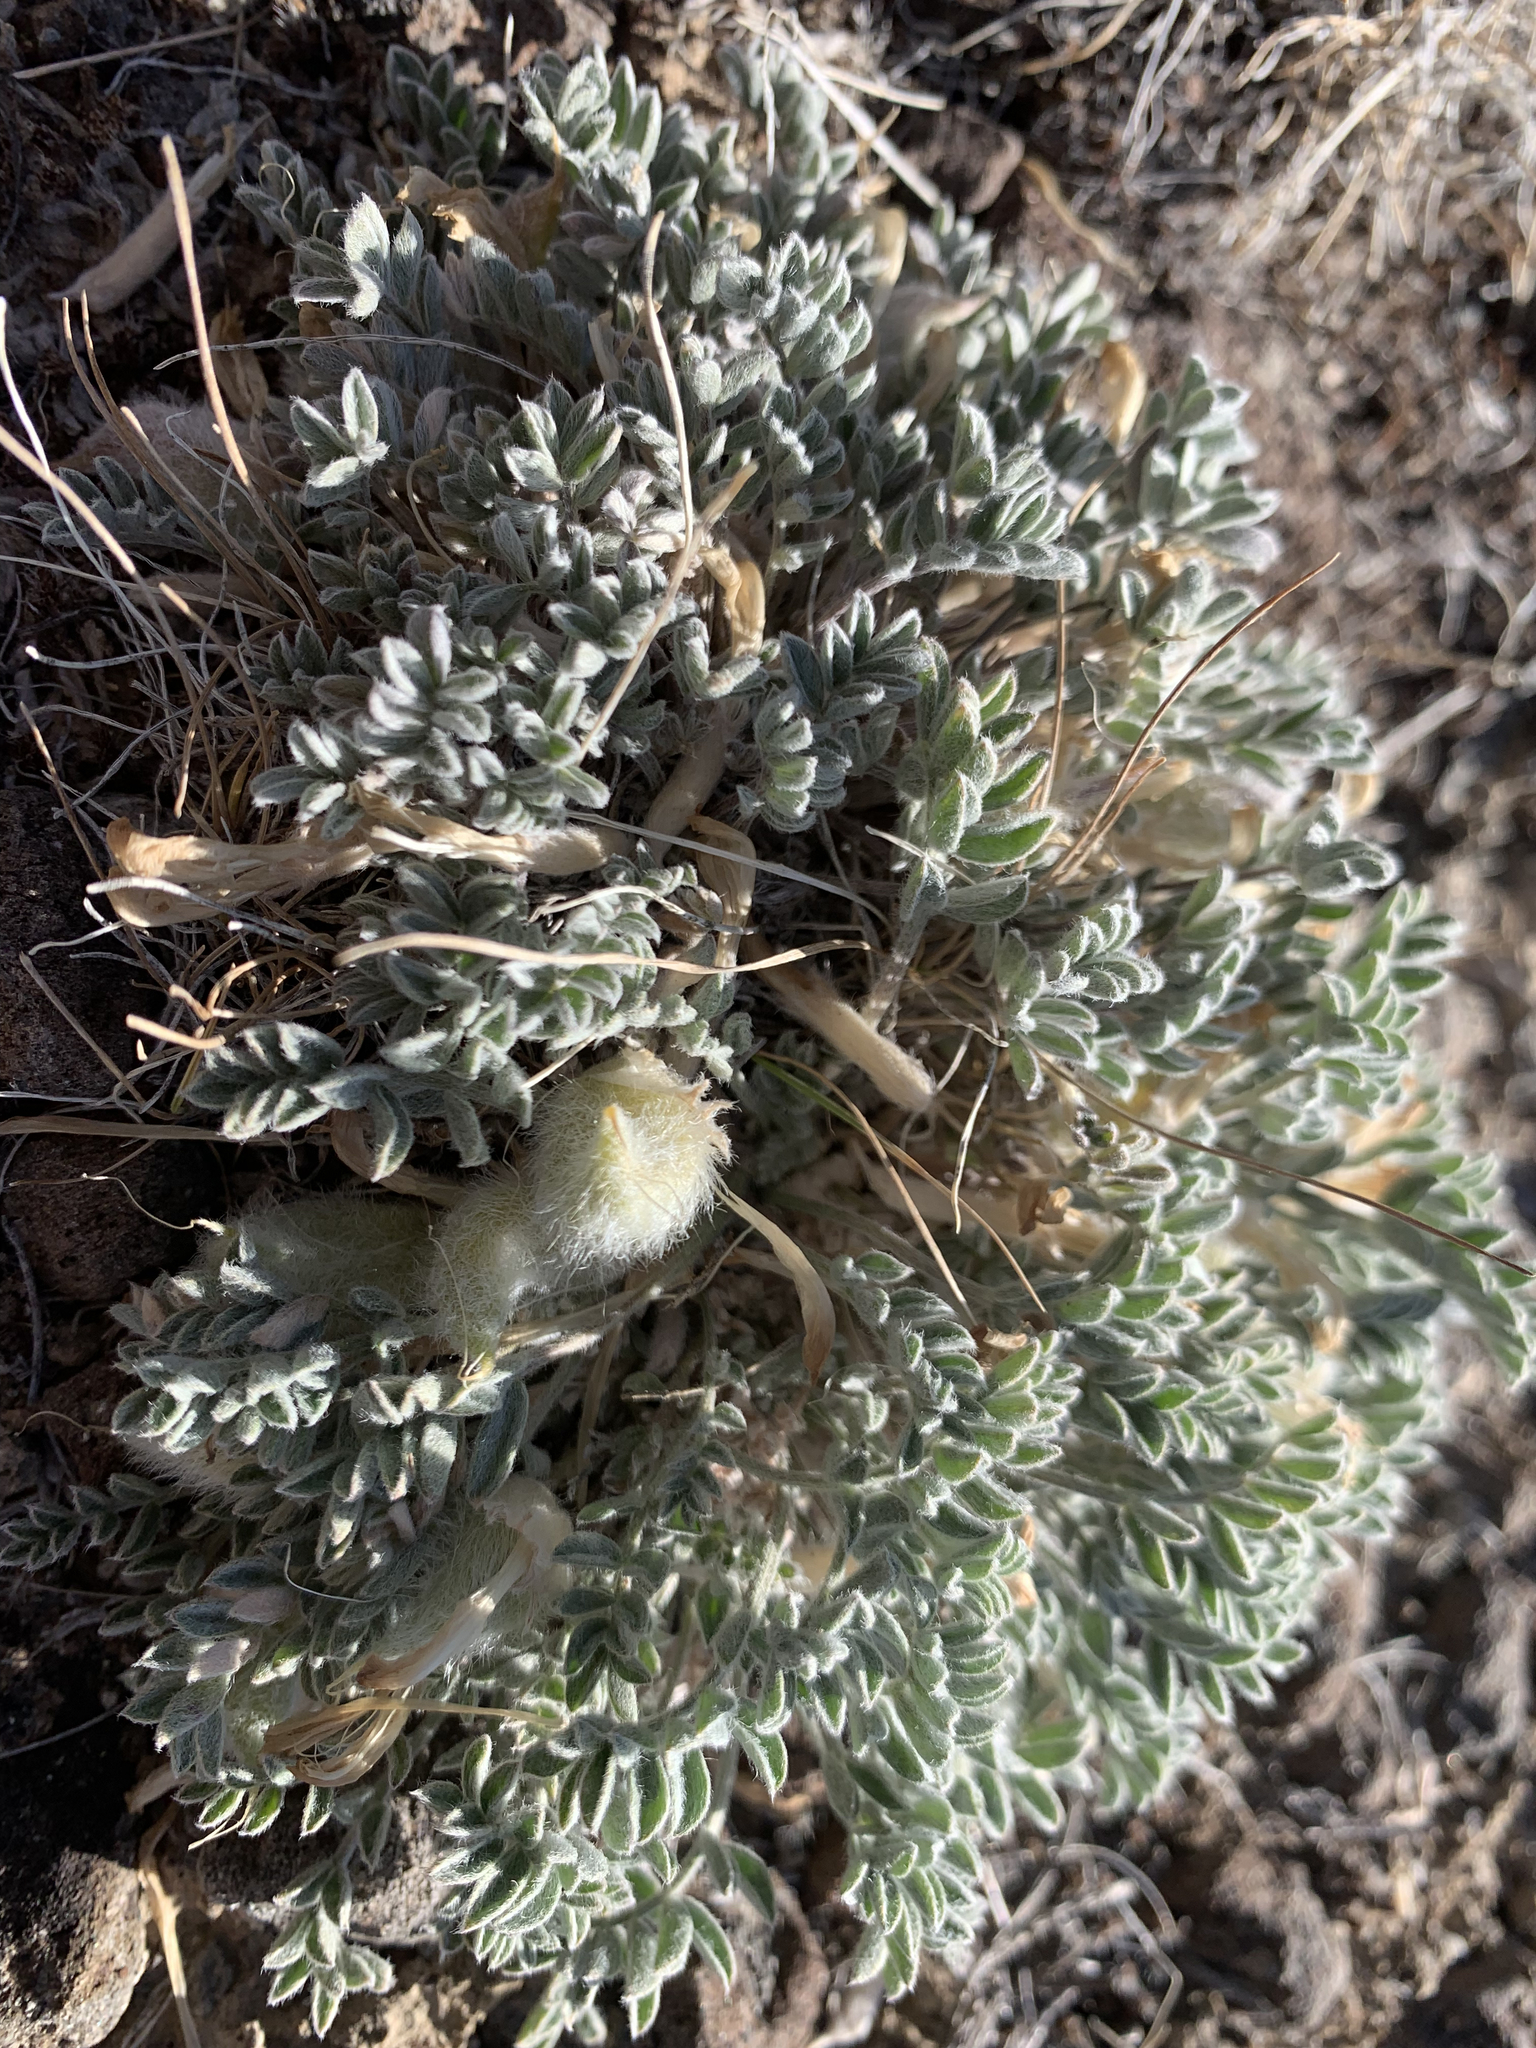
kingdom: Plantae
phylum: Tracheophyta
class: Magnoliopsida
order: Fabales
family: Fabaceae
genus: Astragalus
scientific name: Astragalus purshii
